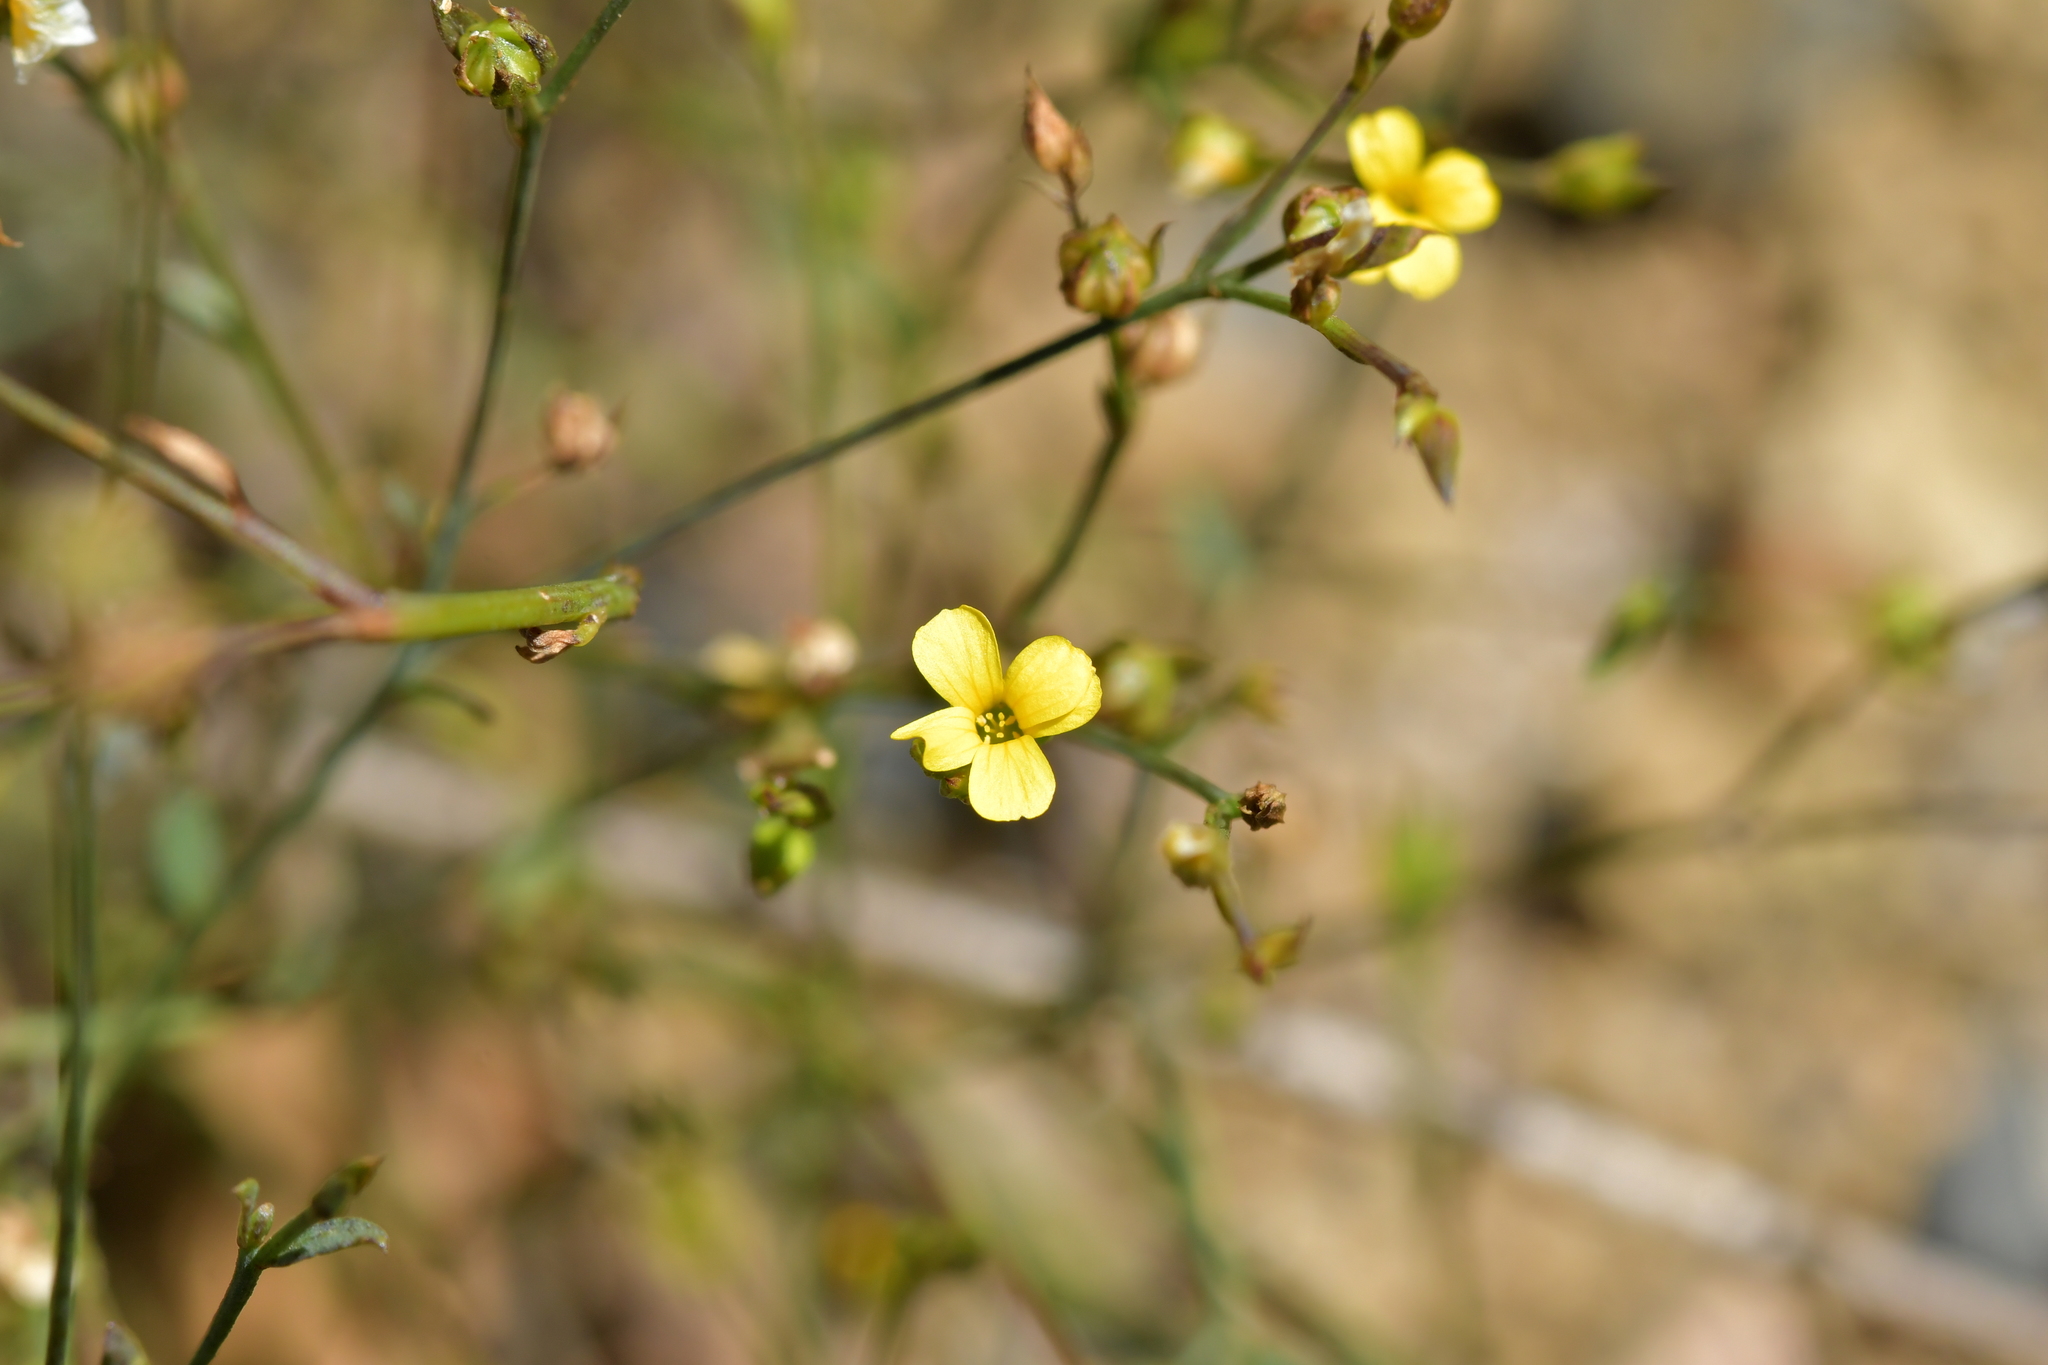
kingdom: Plantae
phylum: Tracheophyta
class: Magnoliopsida
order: Malpighiales
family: Linaceae
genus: Linum
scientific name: Linum trigynum
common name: French flax
